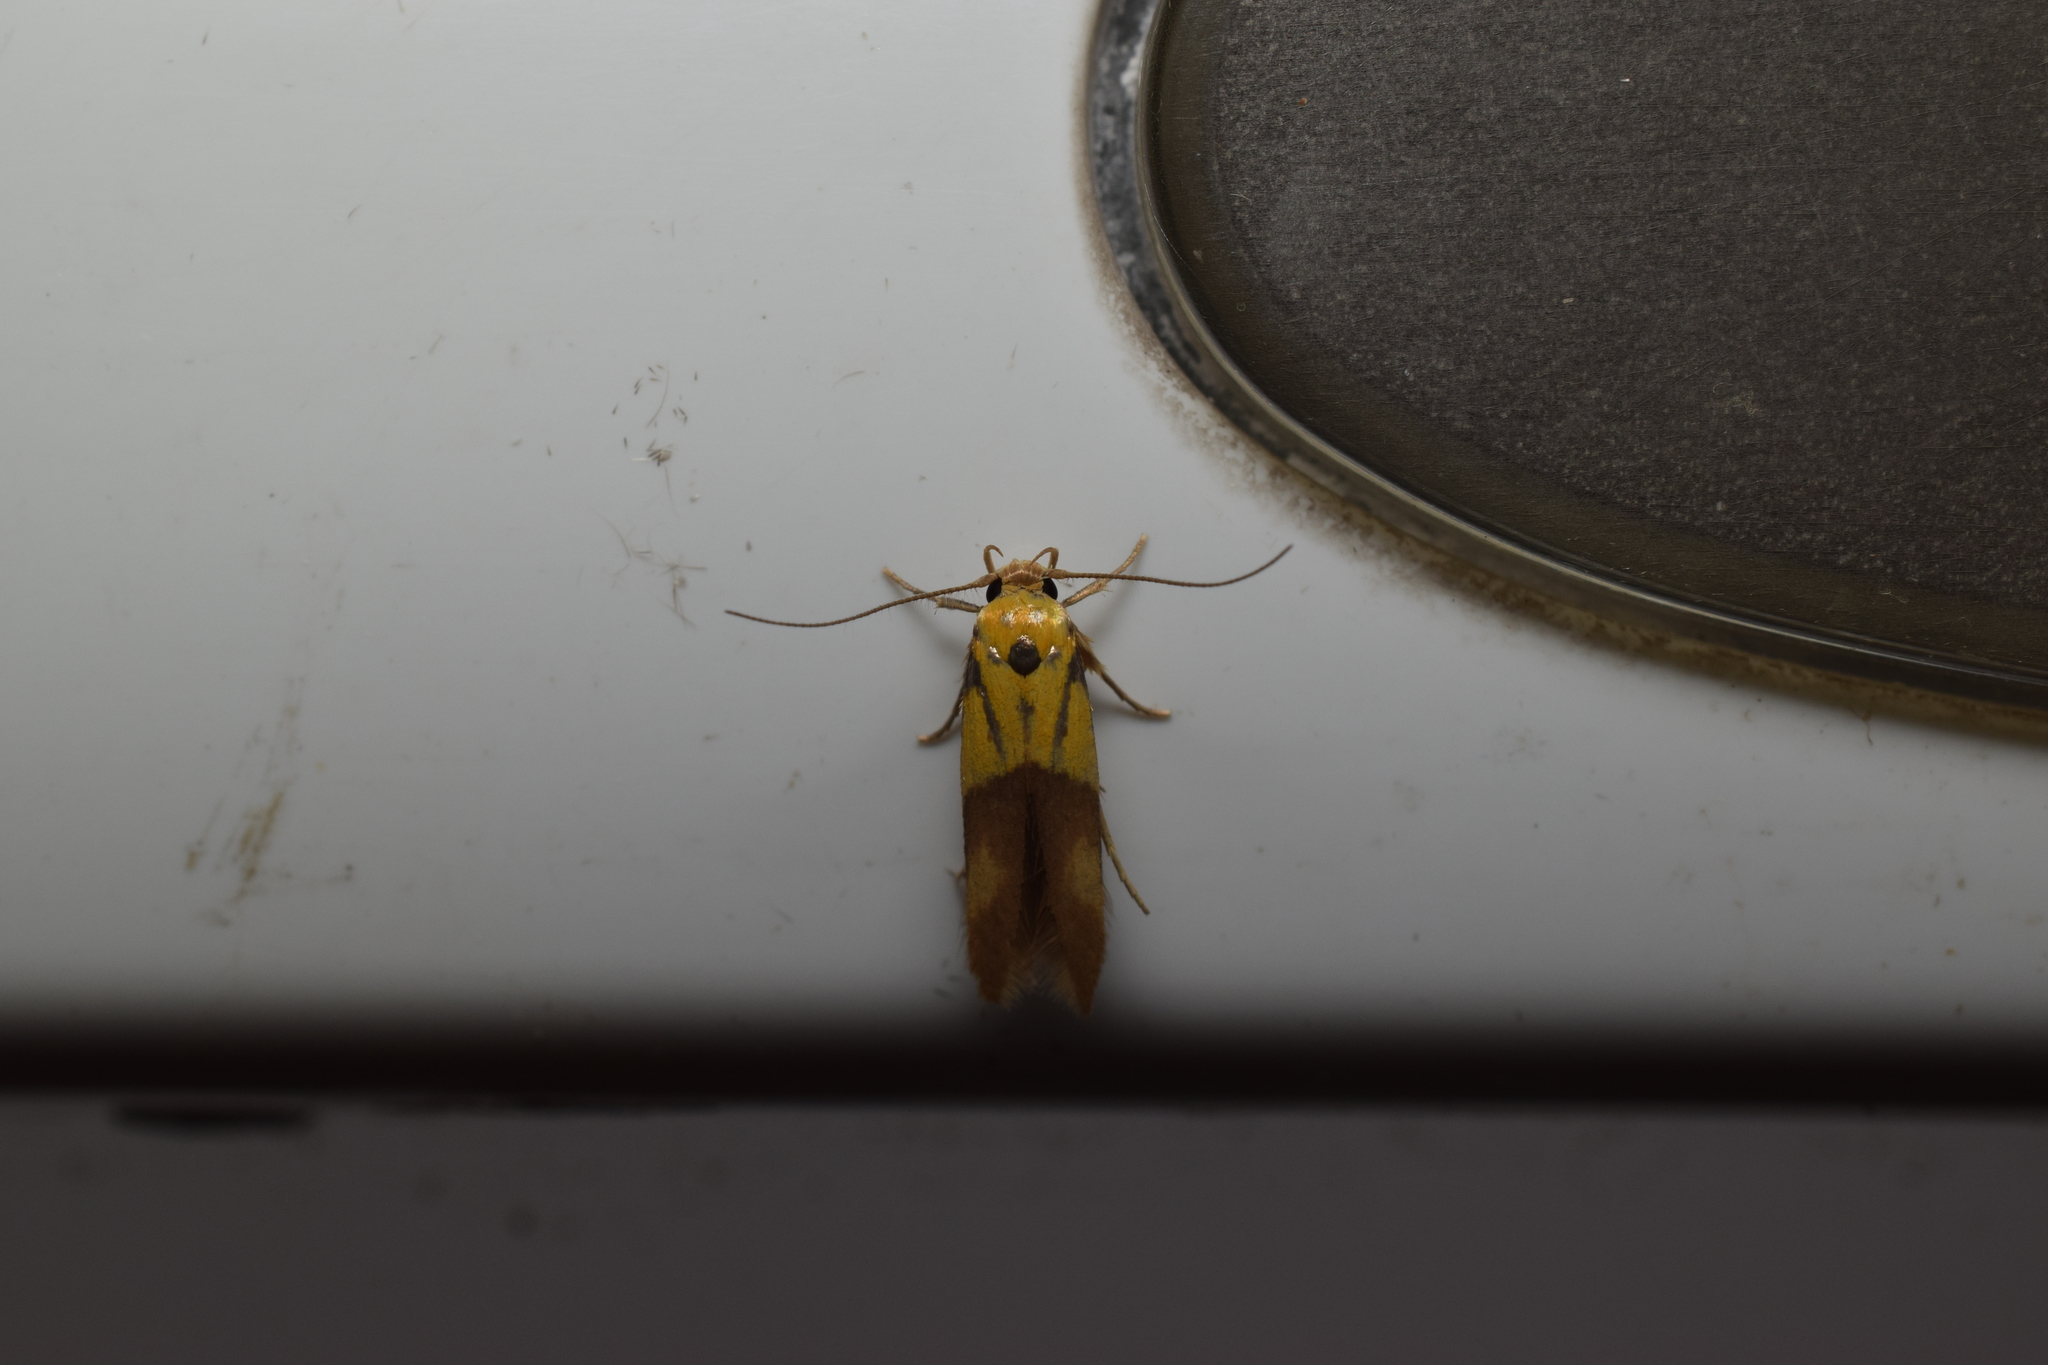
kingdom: Animalia
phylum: Arthropoda
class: Insecta
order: Lepidoptera
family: Stathmopodidae
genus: Stathmopoda
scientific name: Stathmopoda auriferella
